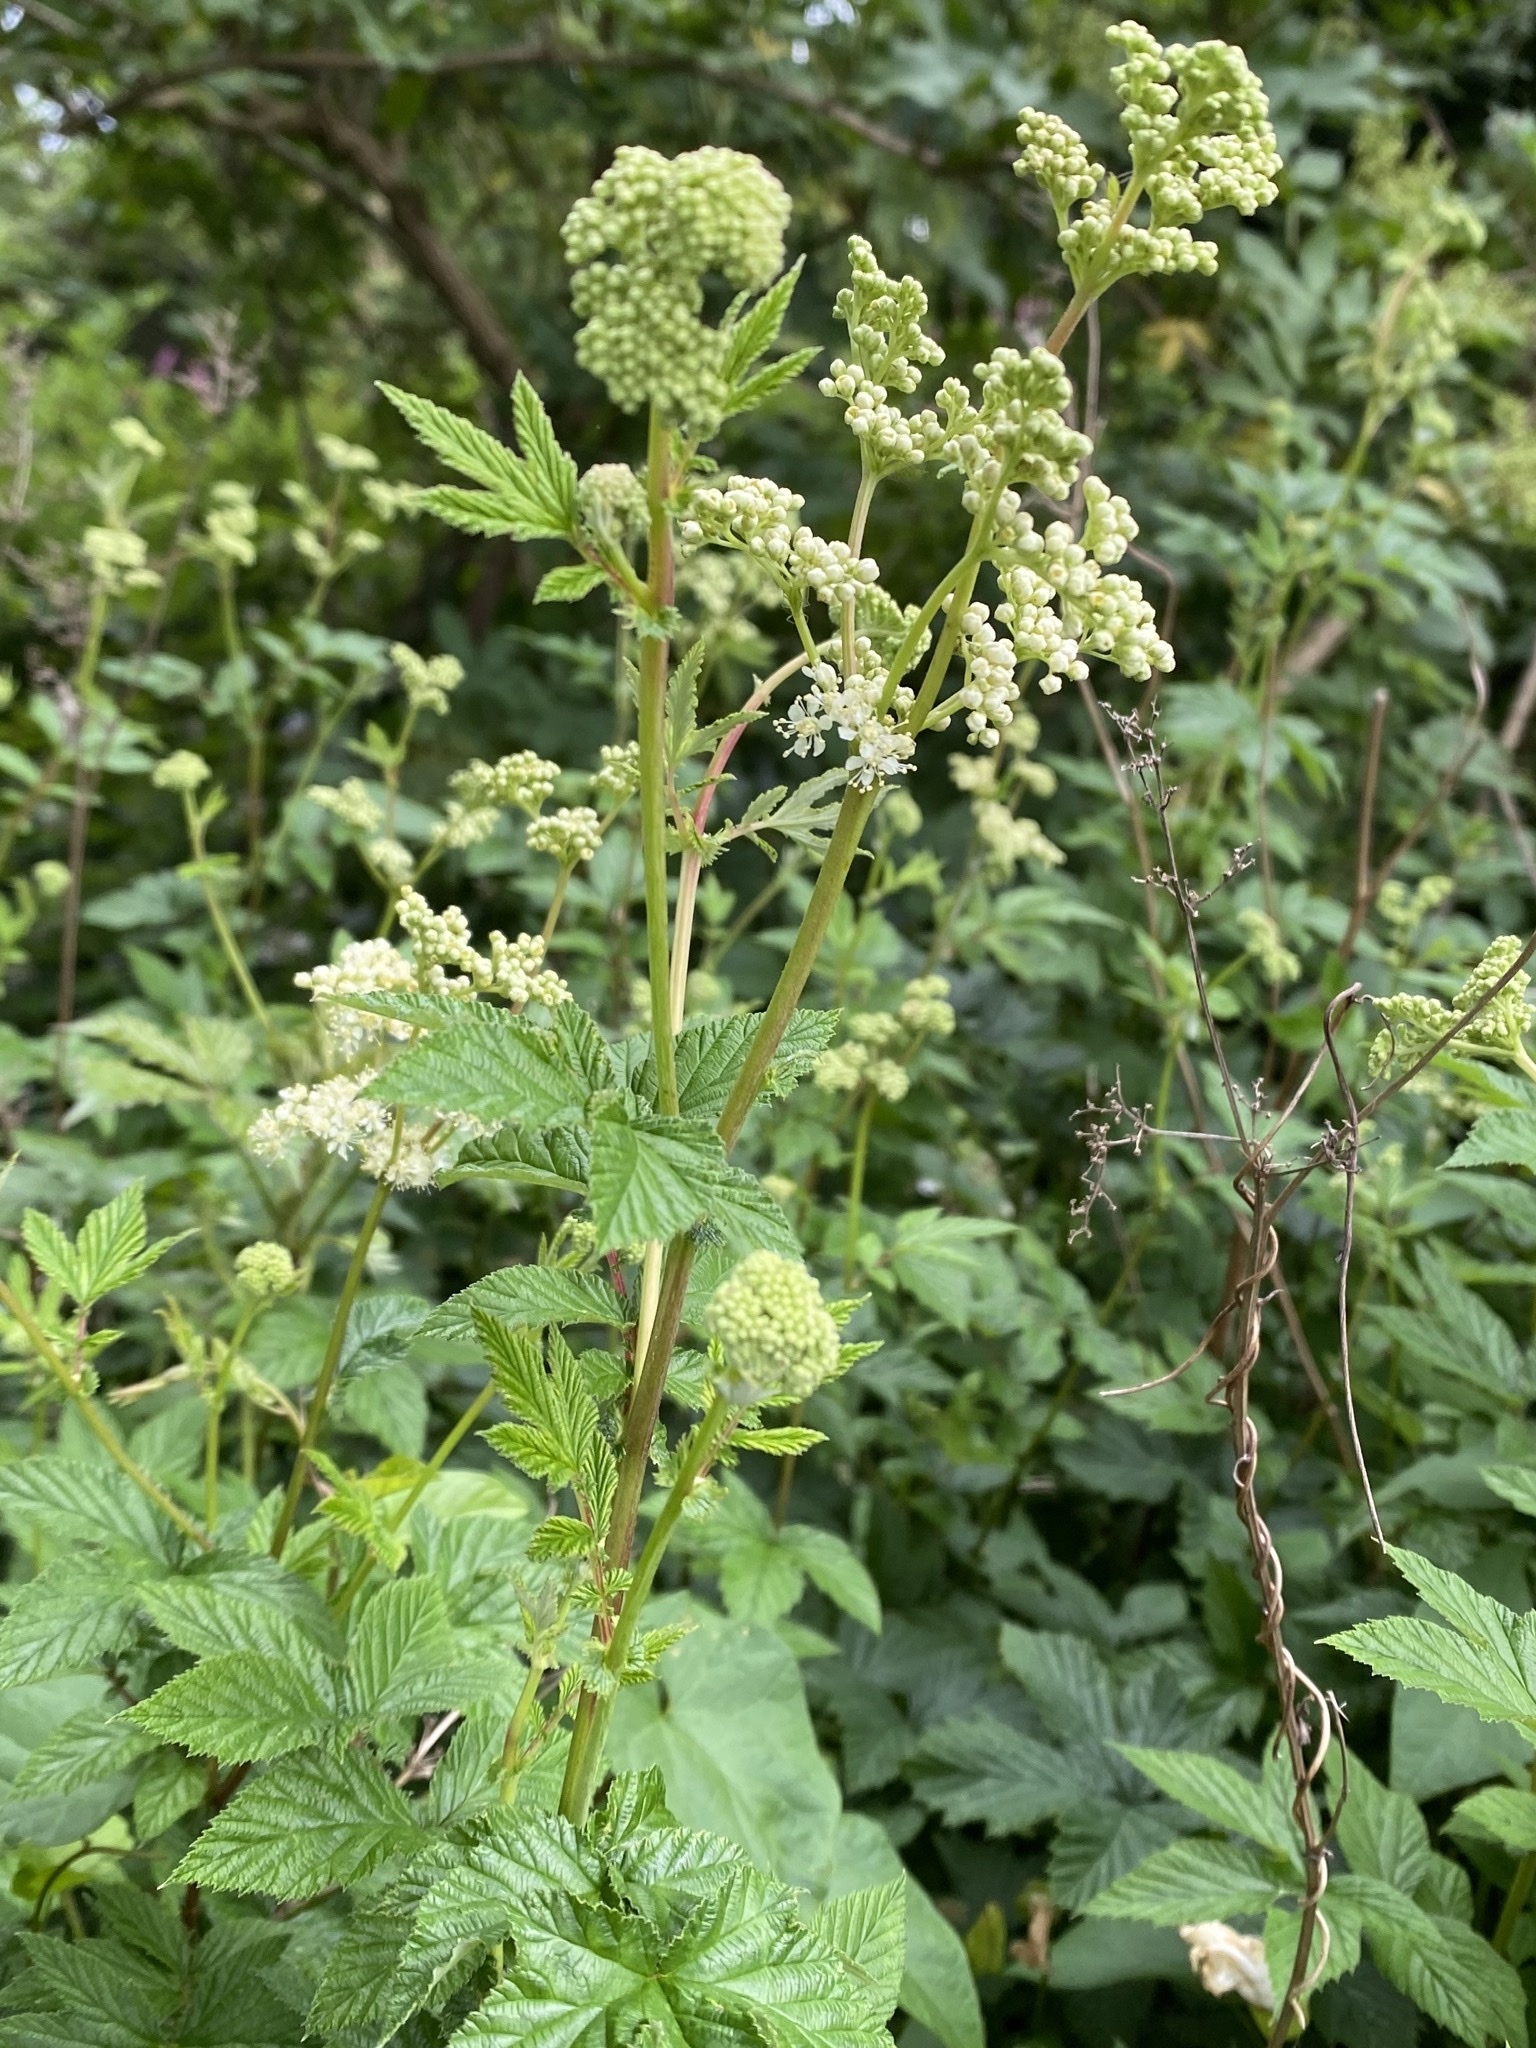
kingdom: Plantae
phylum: Tracheophyta
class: Magnoliopsida
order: Rosales
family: Rosaceae
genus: Filipendula
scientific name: Filipendula ulmaria
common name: Meadowsweet
